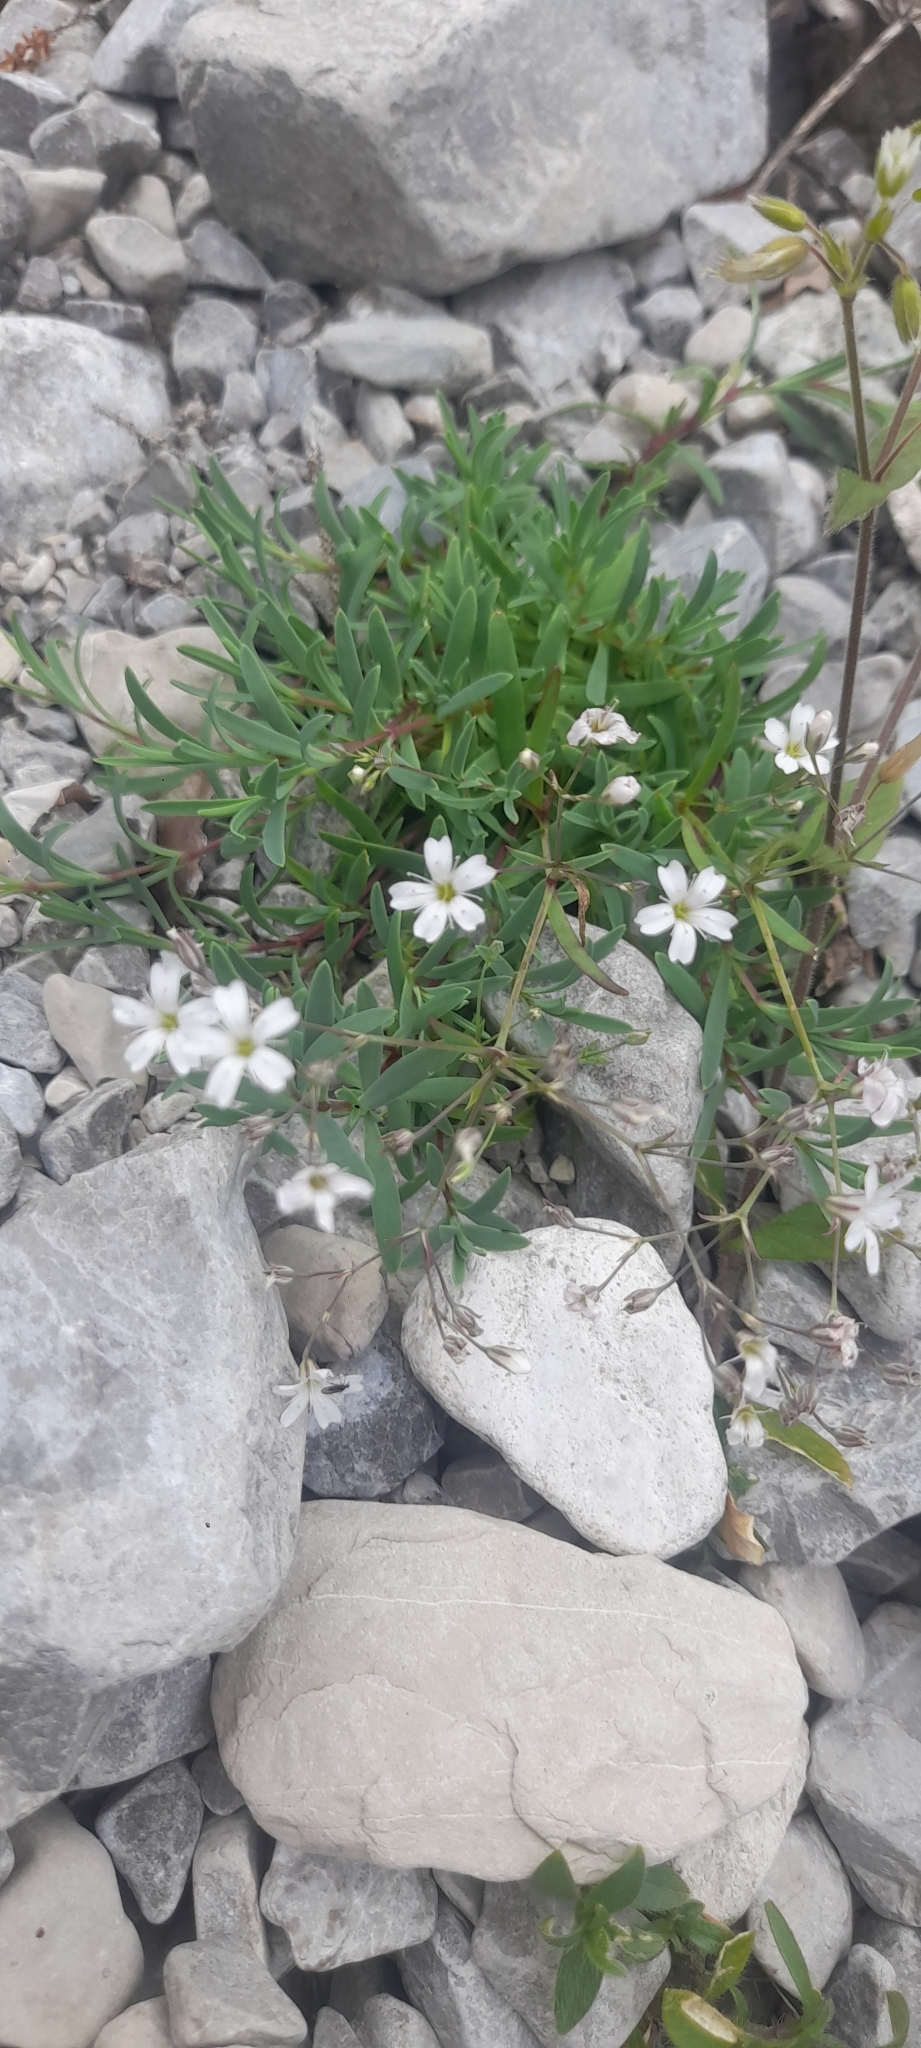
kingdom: Plantae
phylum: Tracheophyta
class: Magnoliopsida
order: Caryophyllales
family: Caryophyllaceae
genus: Gypsophila
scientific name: Gypsophila repens
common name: Creeping baby's-breath
